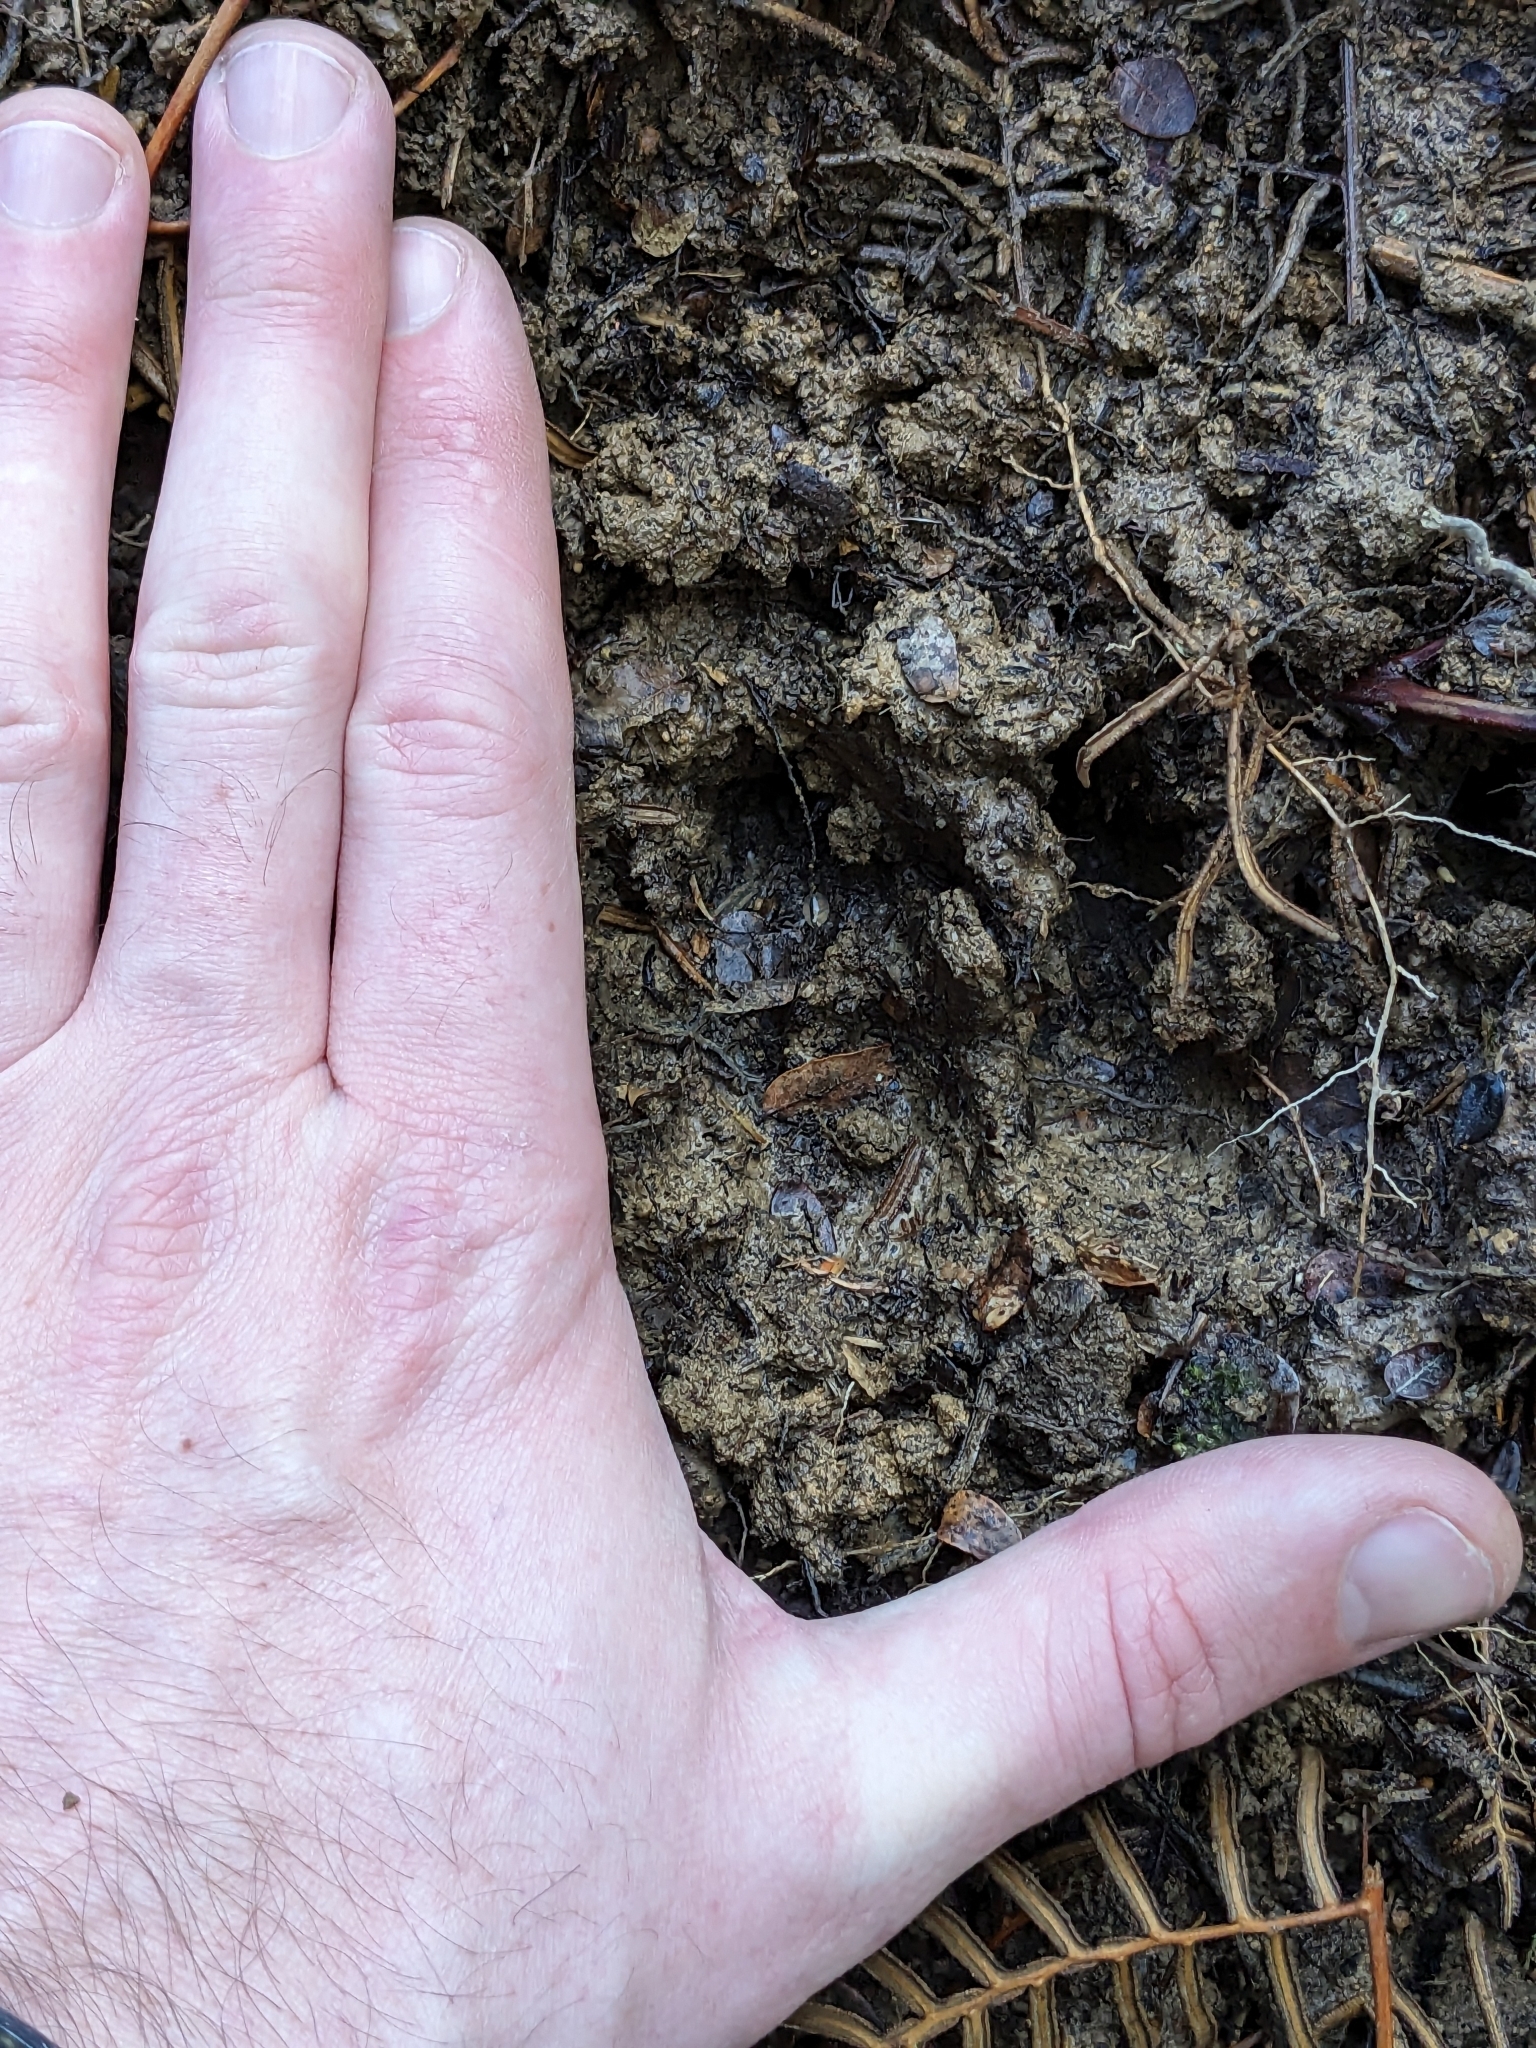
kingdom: Animalia
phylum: Chordata
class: Mammalia
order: Artiodactyla
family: Suidae
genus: Sus
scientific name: Sus scrofa
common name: Wild boar
